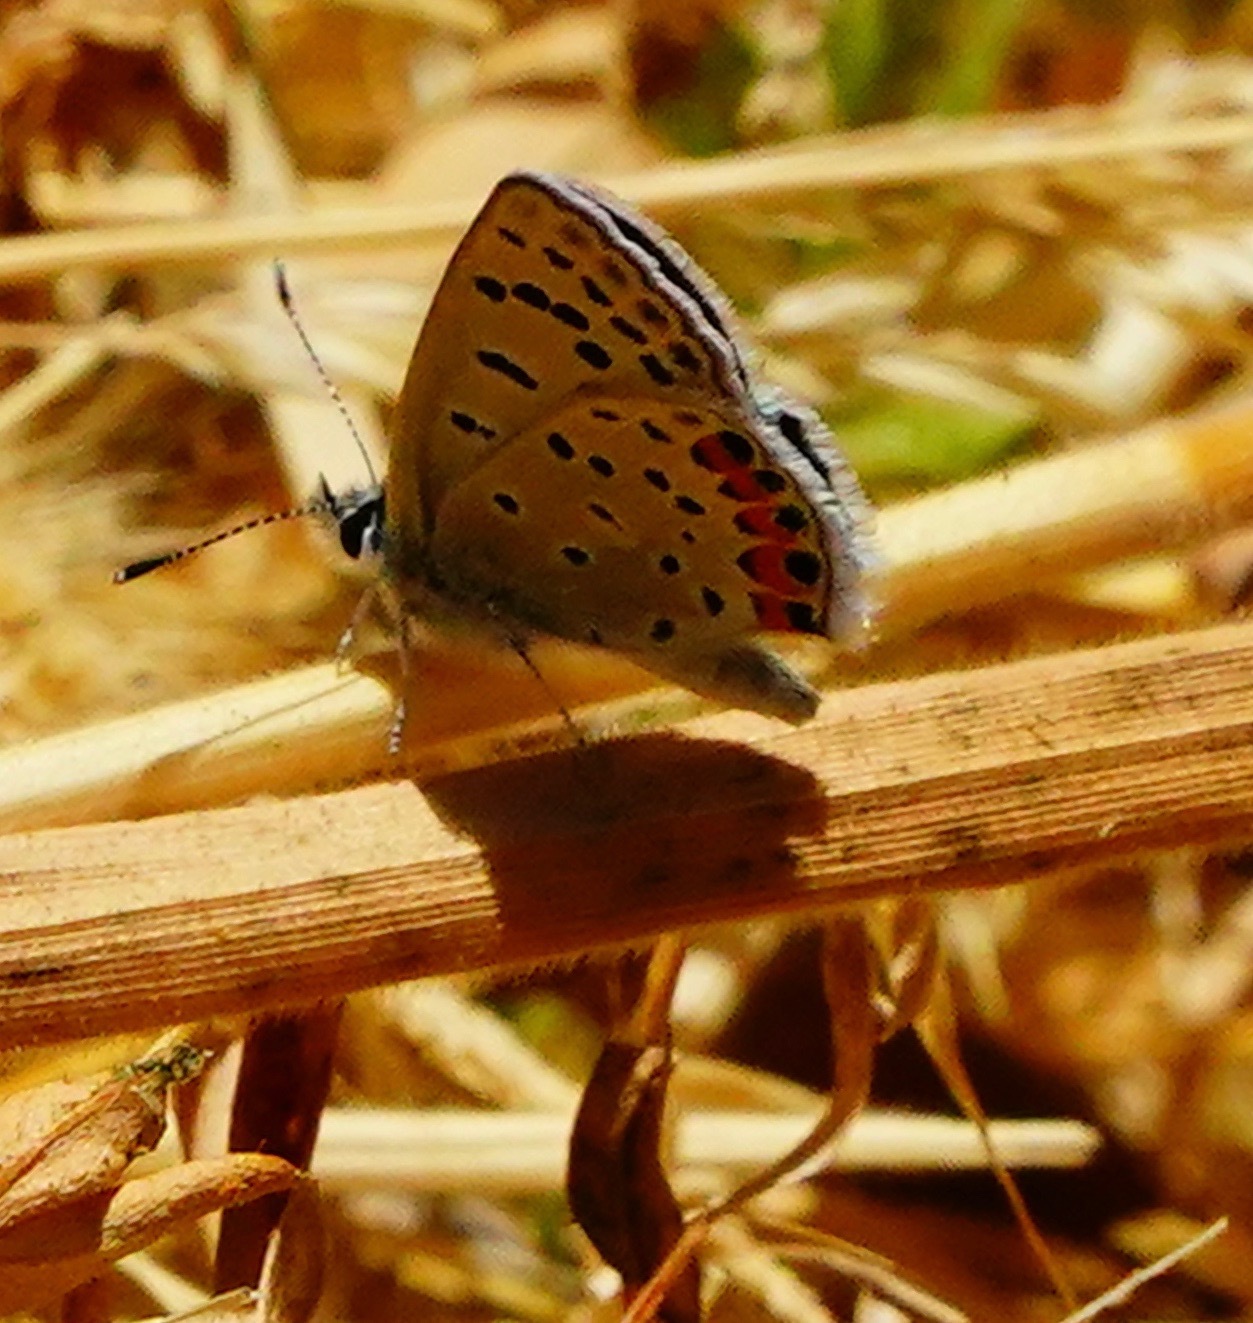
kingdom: Animalia
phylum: Arthropoda
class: Insecta
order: Lepidoptera
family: Lycaenidae
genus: Icaricia
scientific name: Icaricia acmon
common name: Acmon blue
